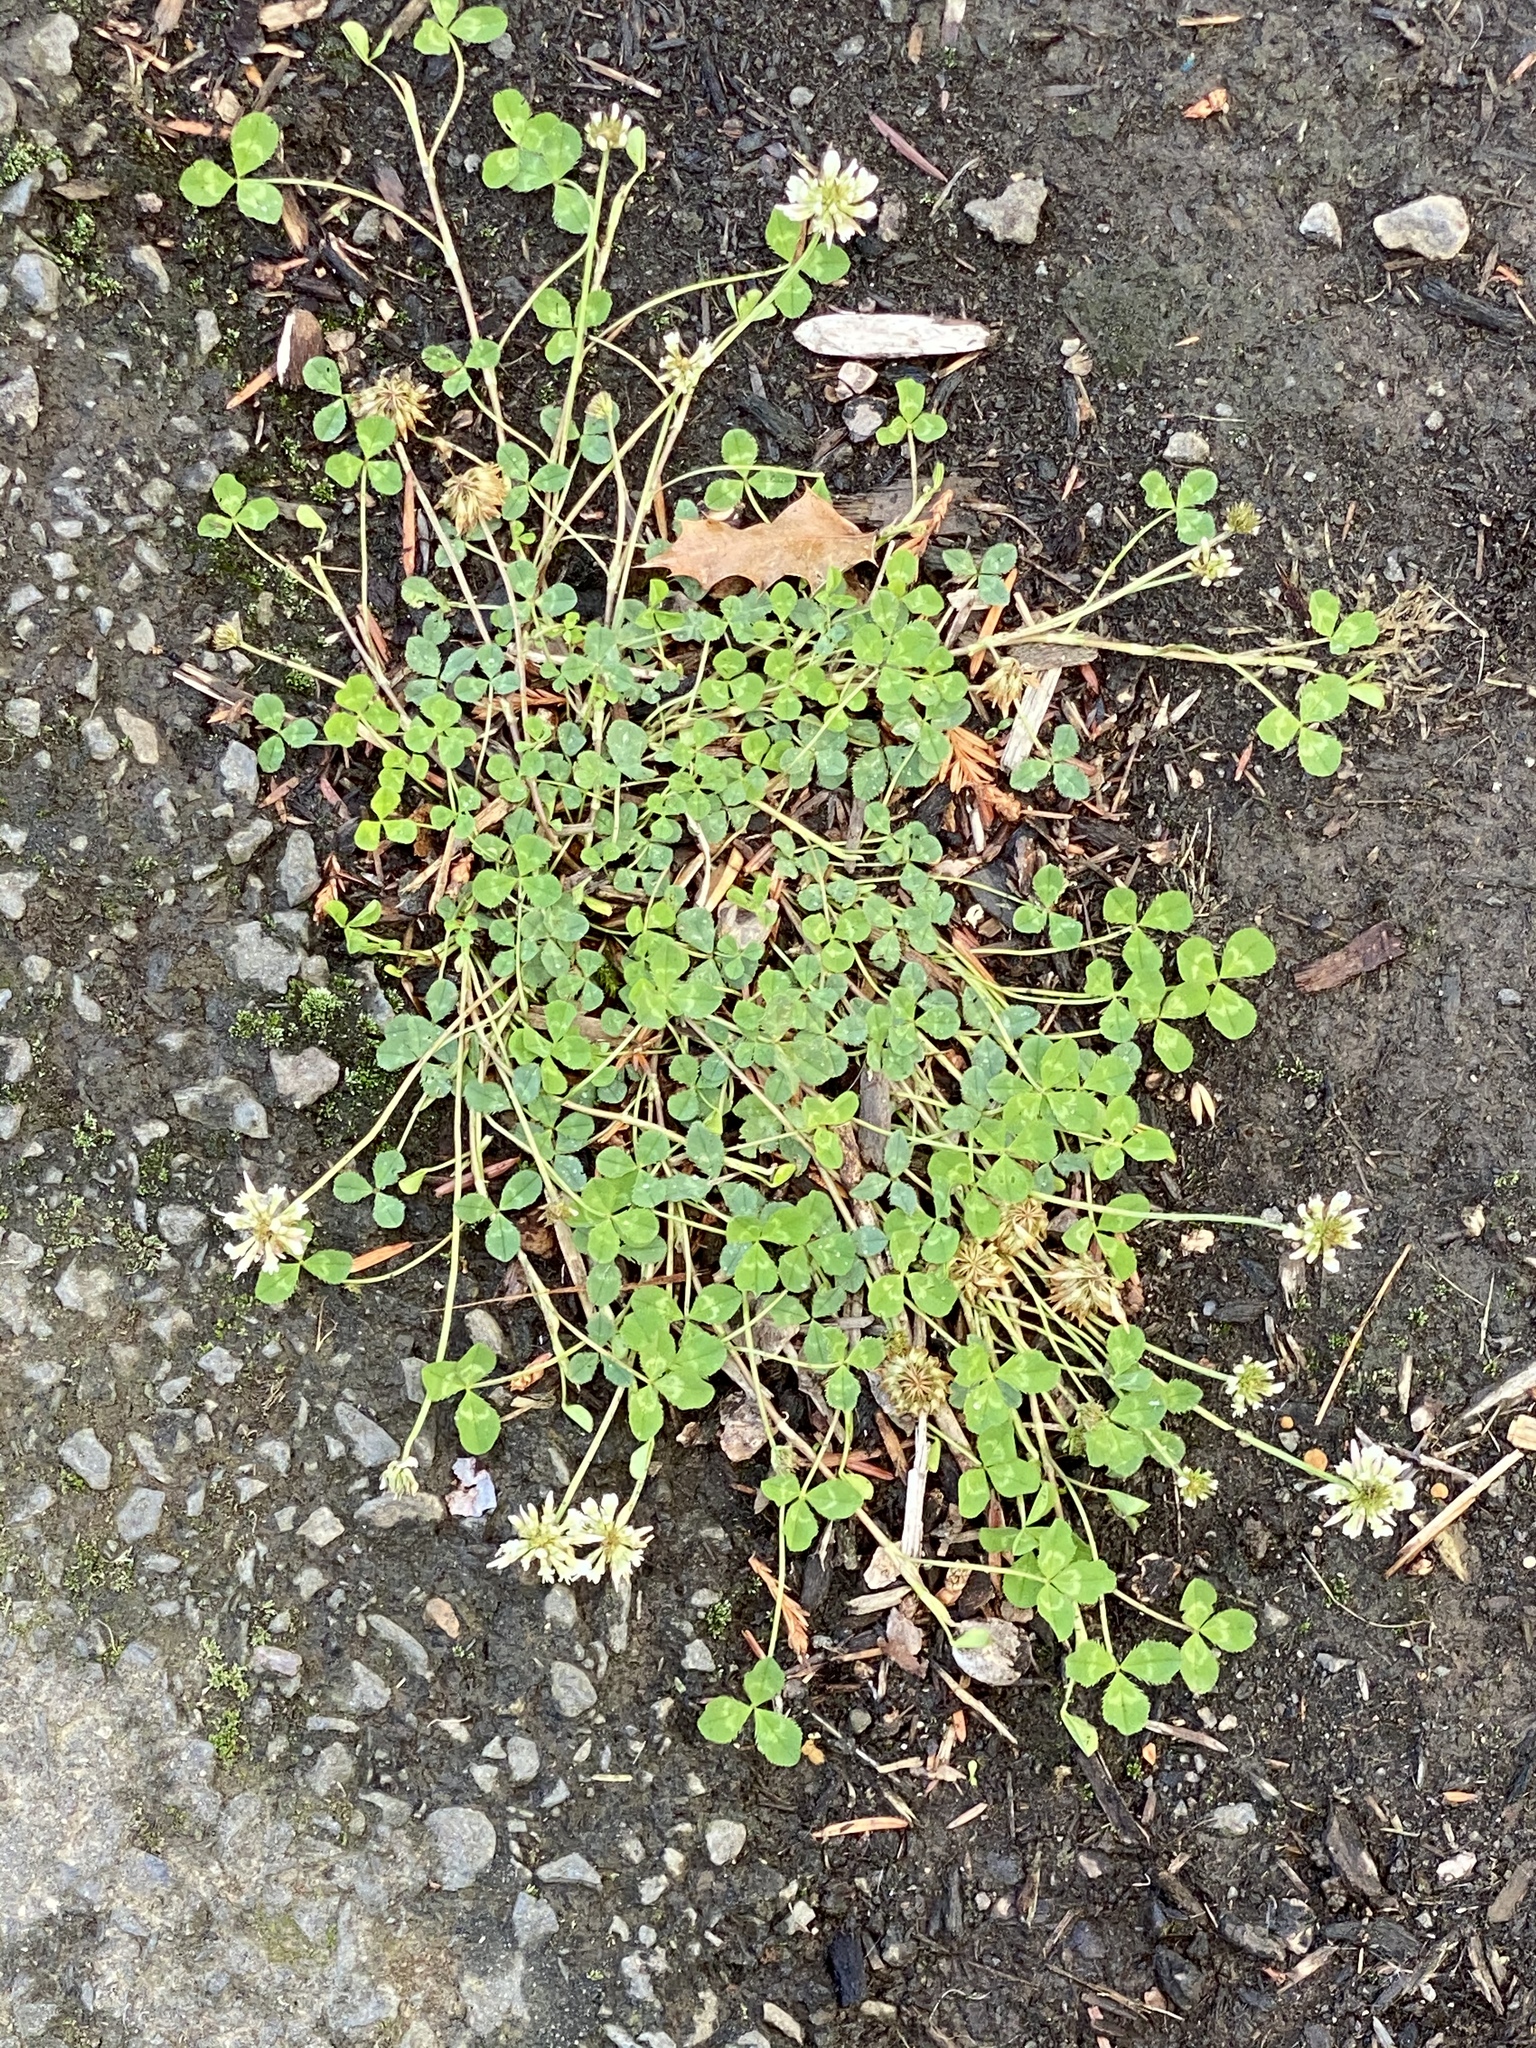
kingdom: Plantae
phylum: Tracheophyta
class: Magnoliopsida
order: Fabales
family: Fabaceae
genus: Trifolium
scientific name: Trifolium repens
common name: White clover
